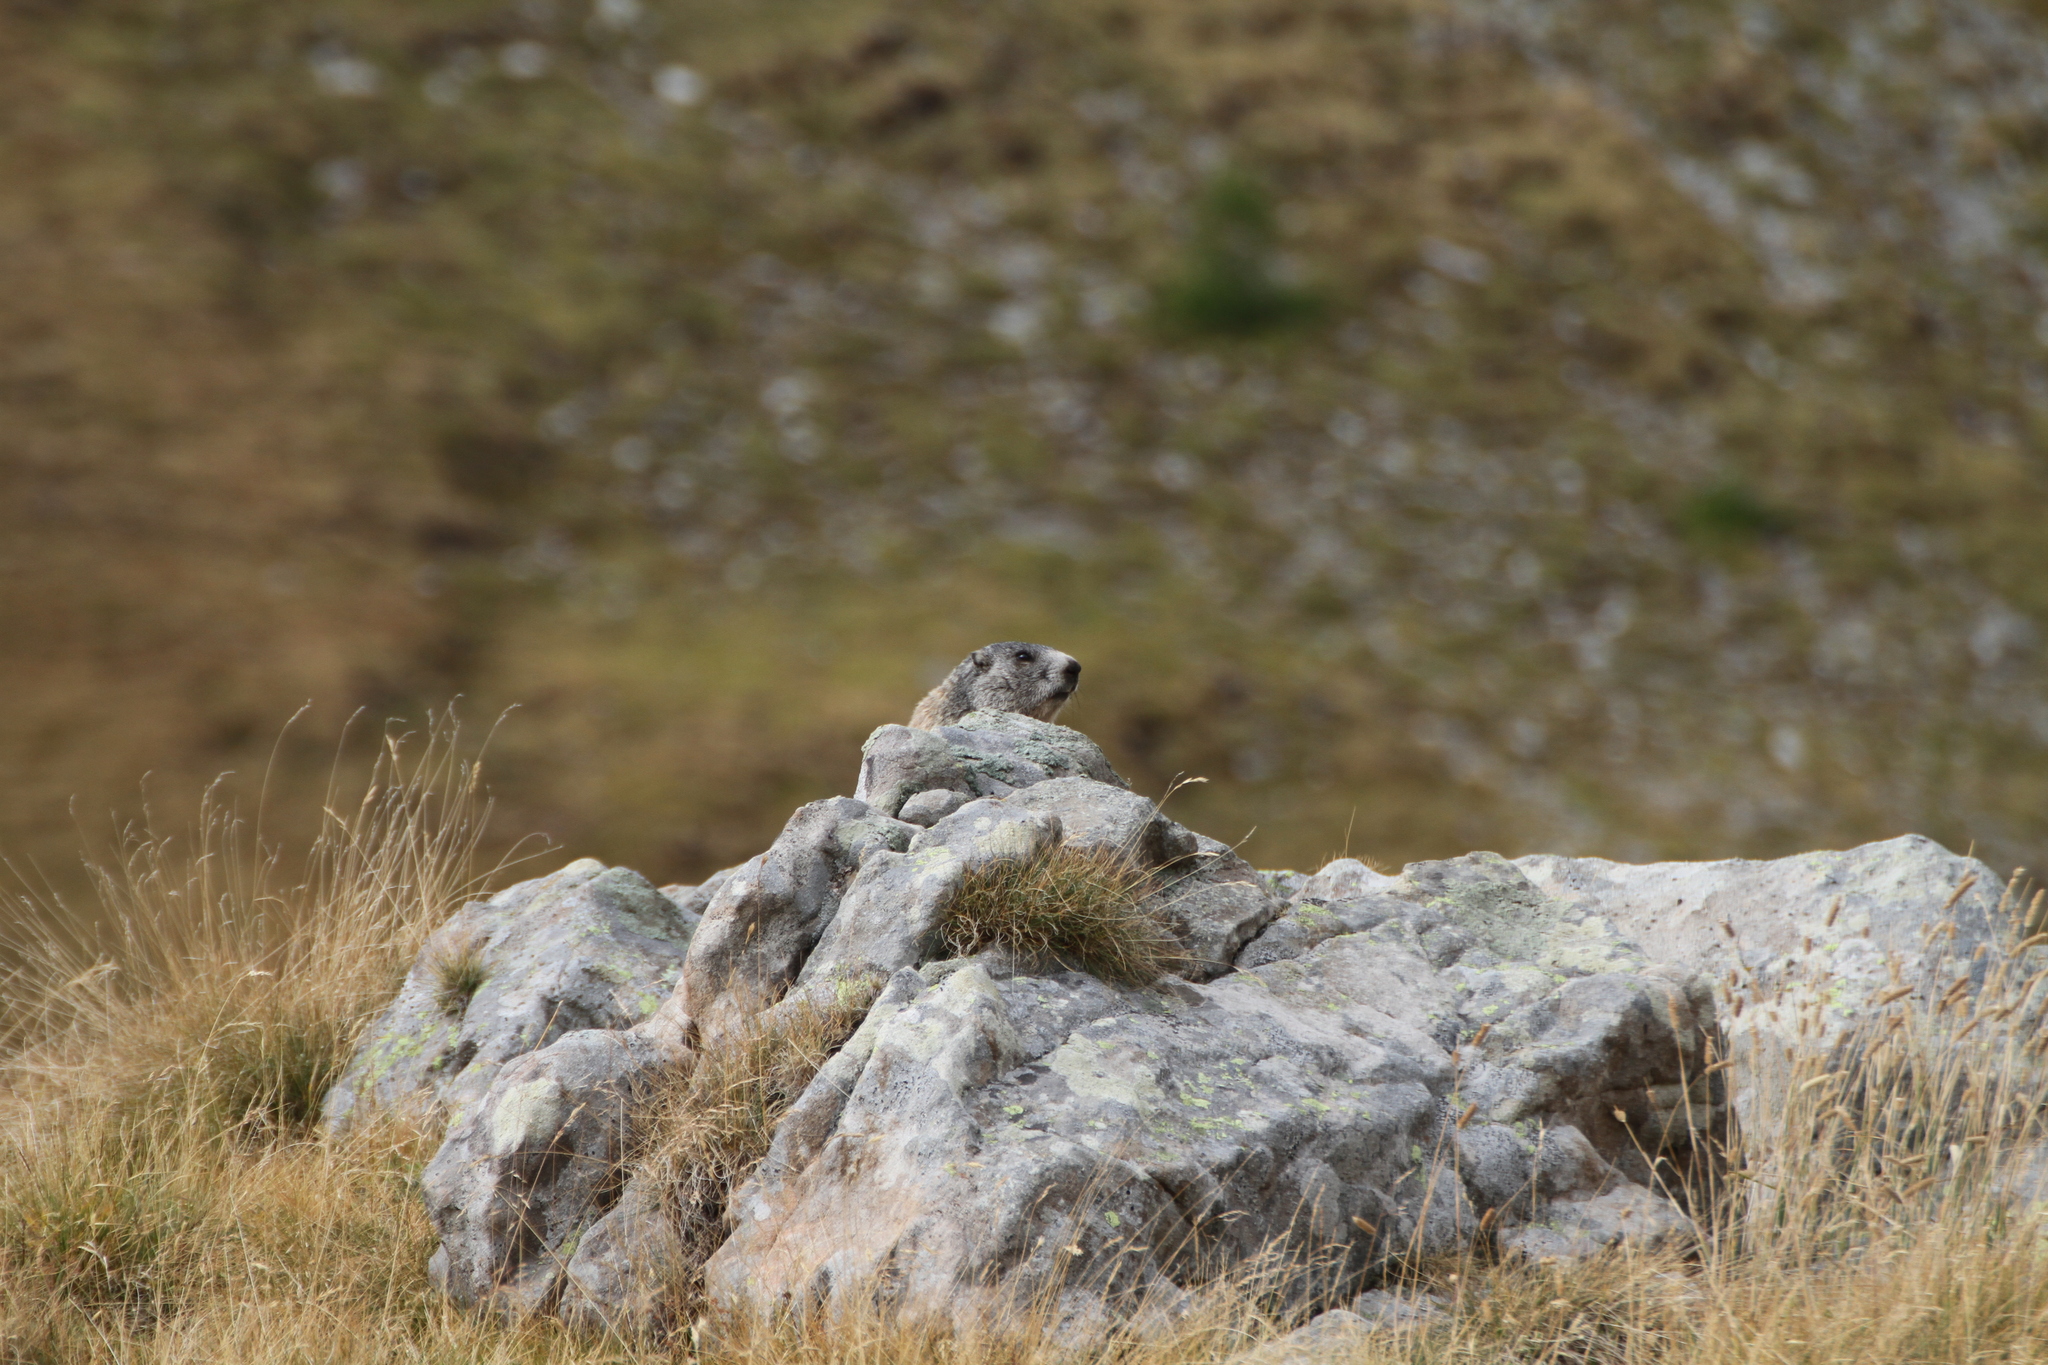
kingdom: Animalia
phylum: Chordata
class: Mammalia
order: Rodentia
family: Sciuridae
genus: Marmota
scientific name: Marmota marmota
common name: Alpine marmot
